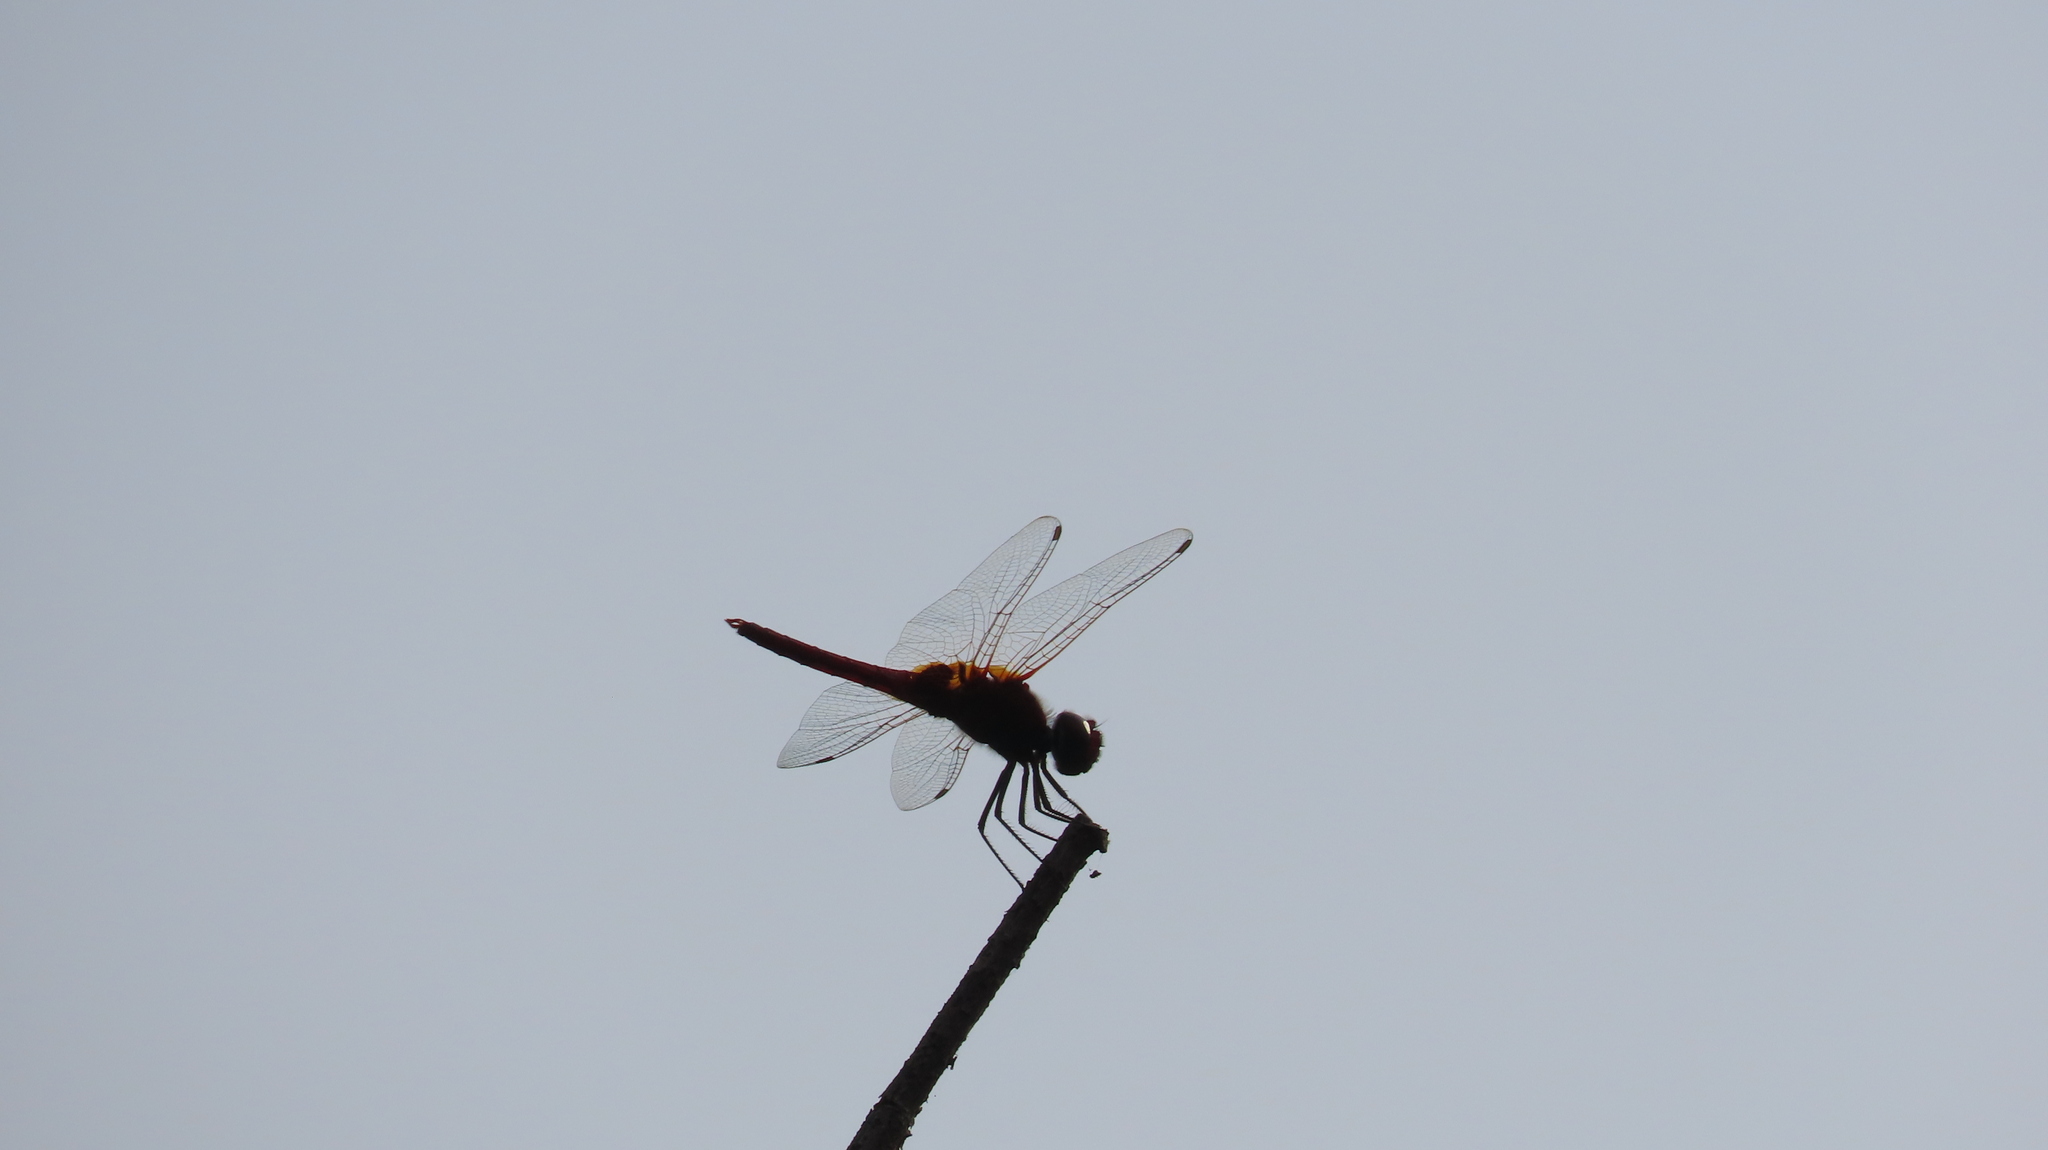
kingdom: Animalia
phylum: Arthropoda
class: Insecta
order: Odonata
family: Libellulidae
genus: Urothemis
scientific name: Urothemis signata
